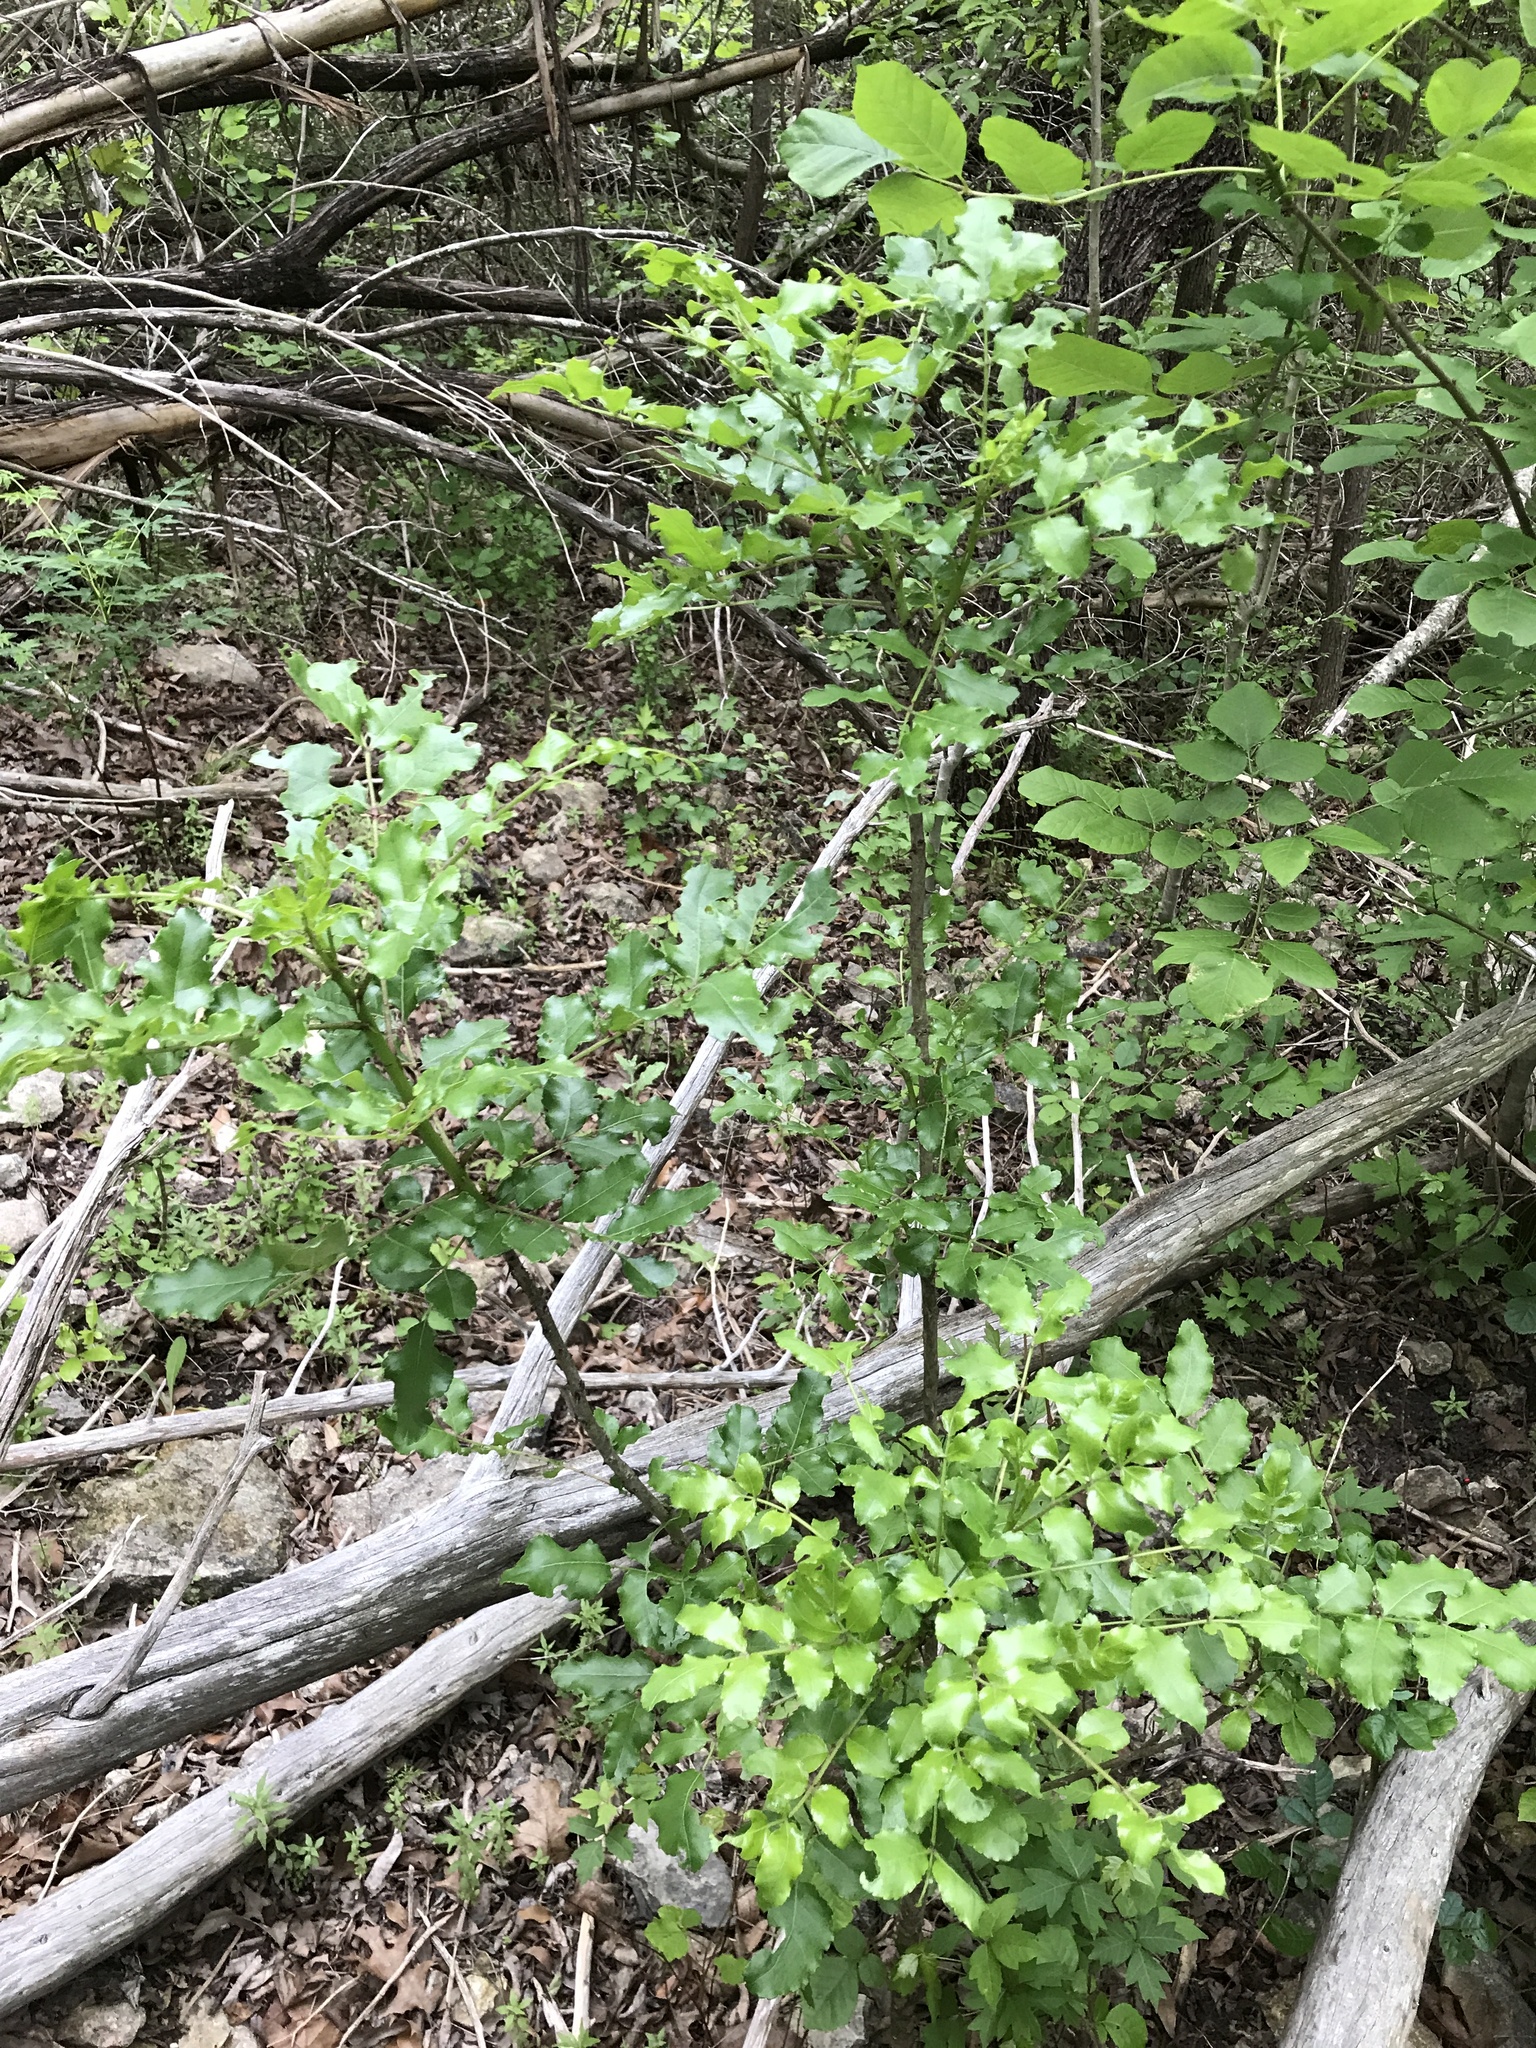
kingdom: Plantae
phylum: Tracheophyta
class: Magnoliopsida
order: Sapindales
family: Rutaceae
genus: Zanthoxylum
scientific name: Zanthoxylum clava-herculis
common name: Hercules'-club
